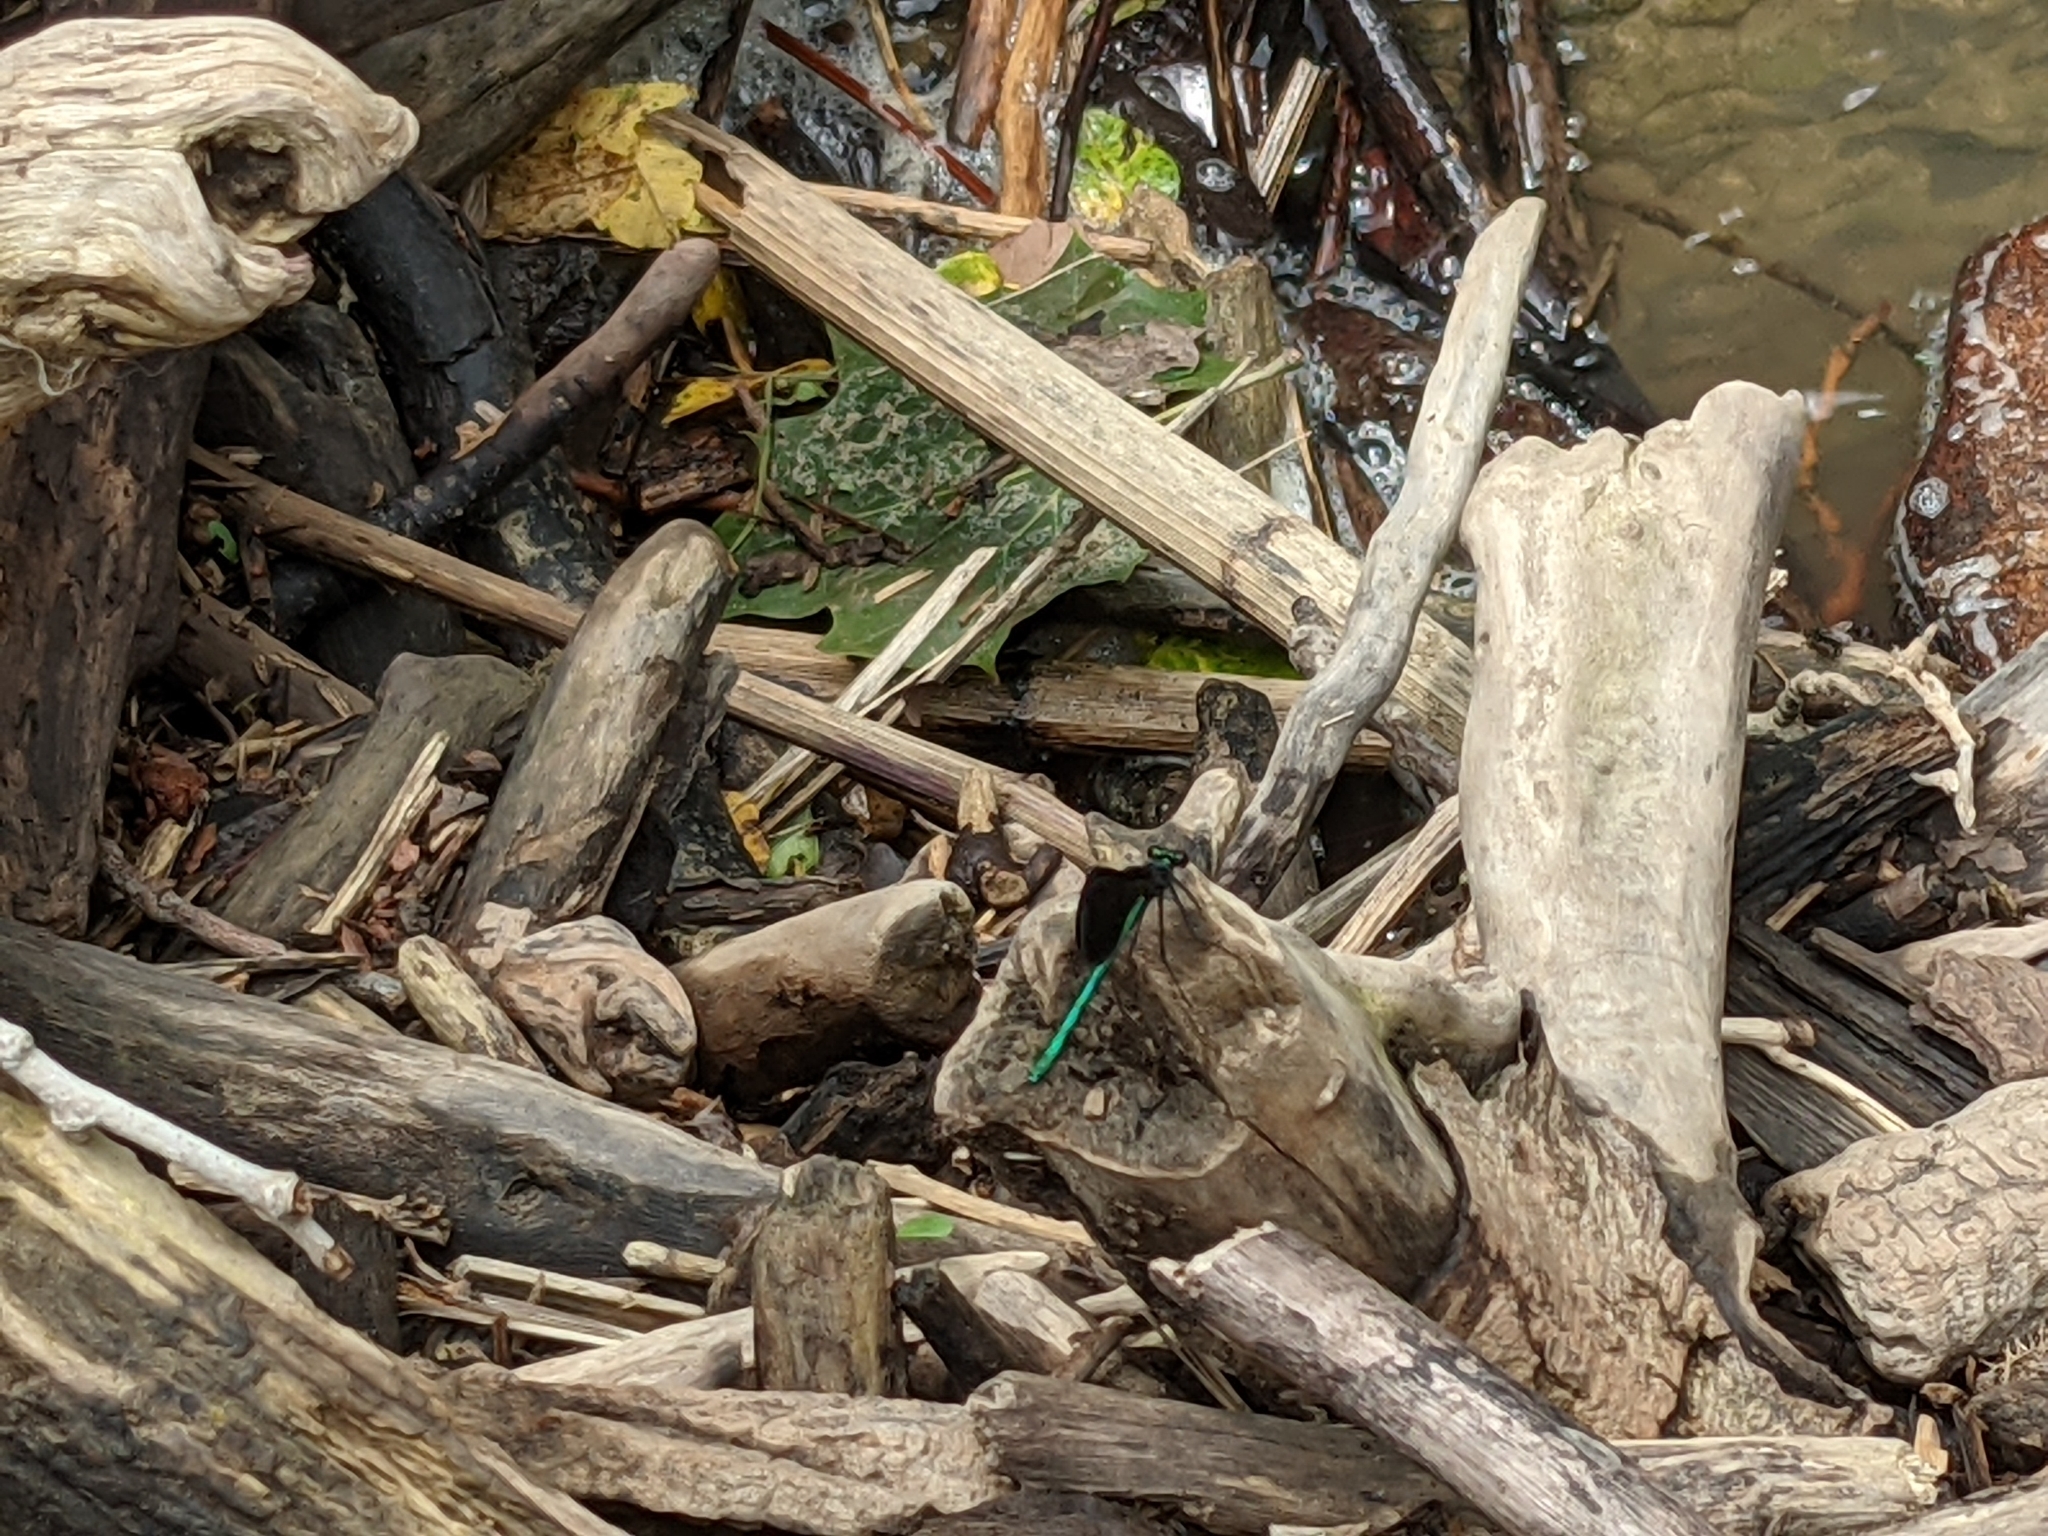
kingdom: Animalia
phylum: Arthropoda
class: Insecta
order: Odonata
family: Calopterygidae
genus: Calopteryx
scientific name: Calopteryx maculata
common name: Ebony jewelwing
